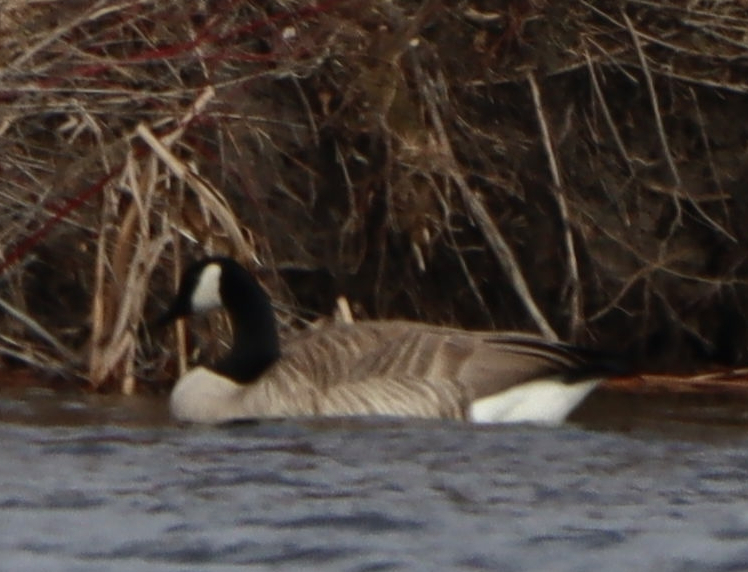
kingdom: Animalia
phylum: Chordata
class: Aves
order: Anseriformes
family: Anatidae
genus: Branta
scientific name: Branta canadensis
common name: Canada goose
